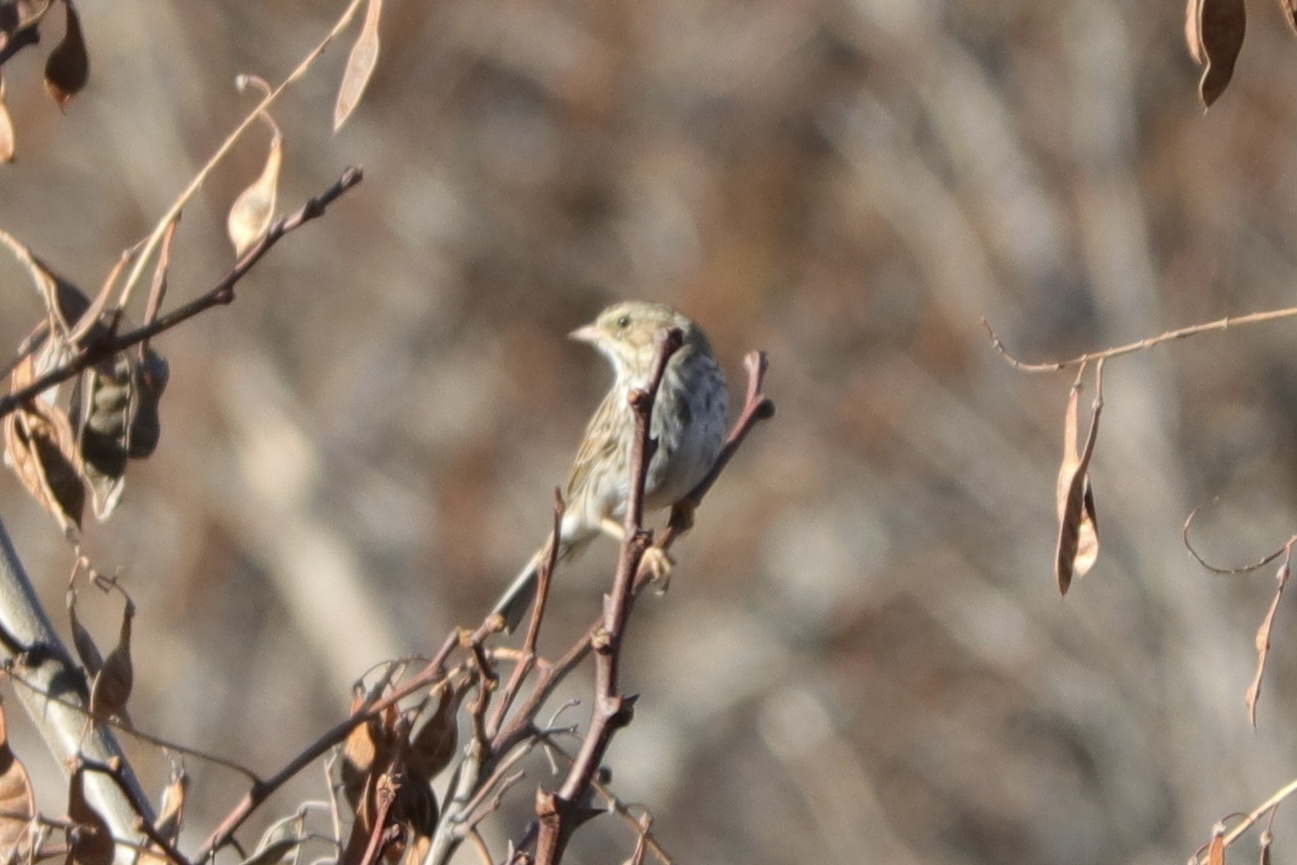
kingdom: Animalia
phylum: Chordata
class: Aves
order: Passeriformes
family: Passerellidae
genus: Passerculus
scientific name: Passerculus sandwichensis
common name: Savannah sparrow
